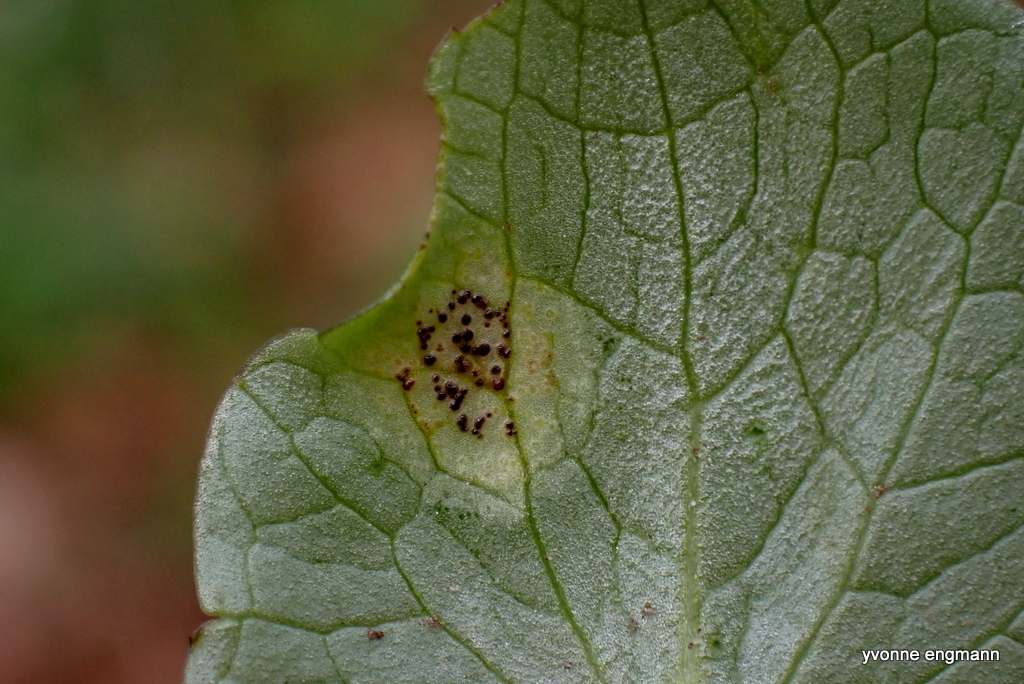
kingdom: Fungi
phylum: Basidiomycota
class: Pucciniomycetes
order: Pucciniales
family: Pucciniaceae
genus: Uromyces
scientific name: Uromyces ficariae
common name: Bitter chocolate rust
